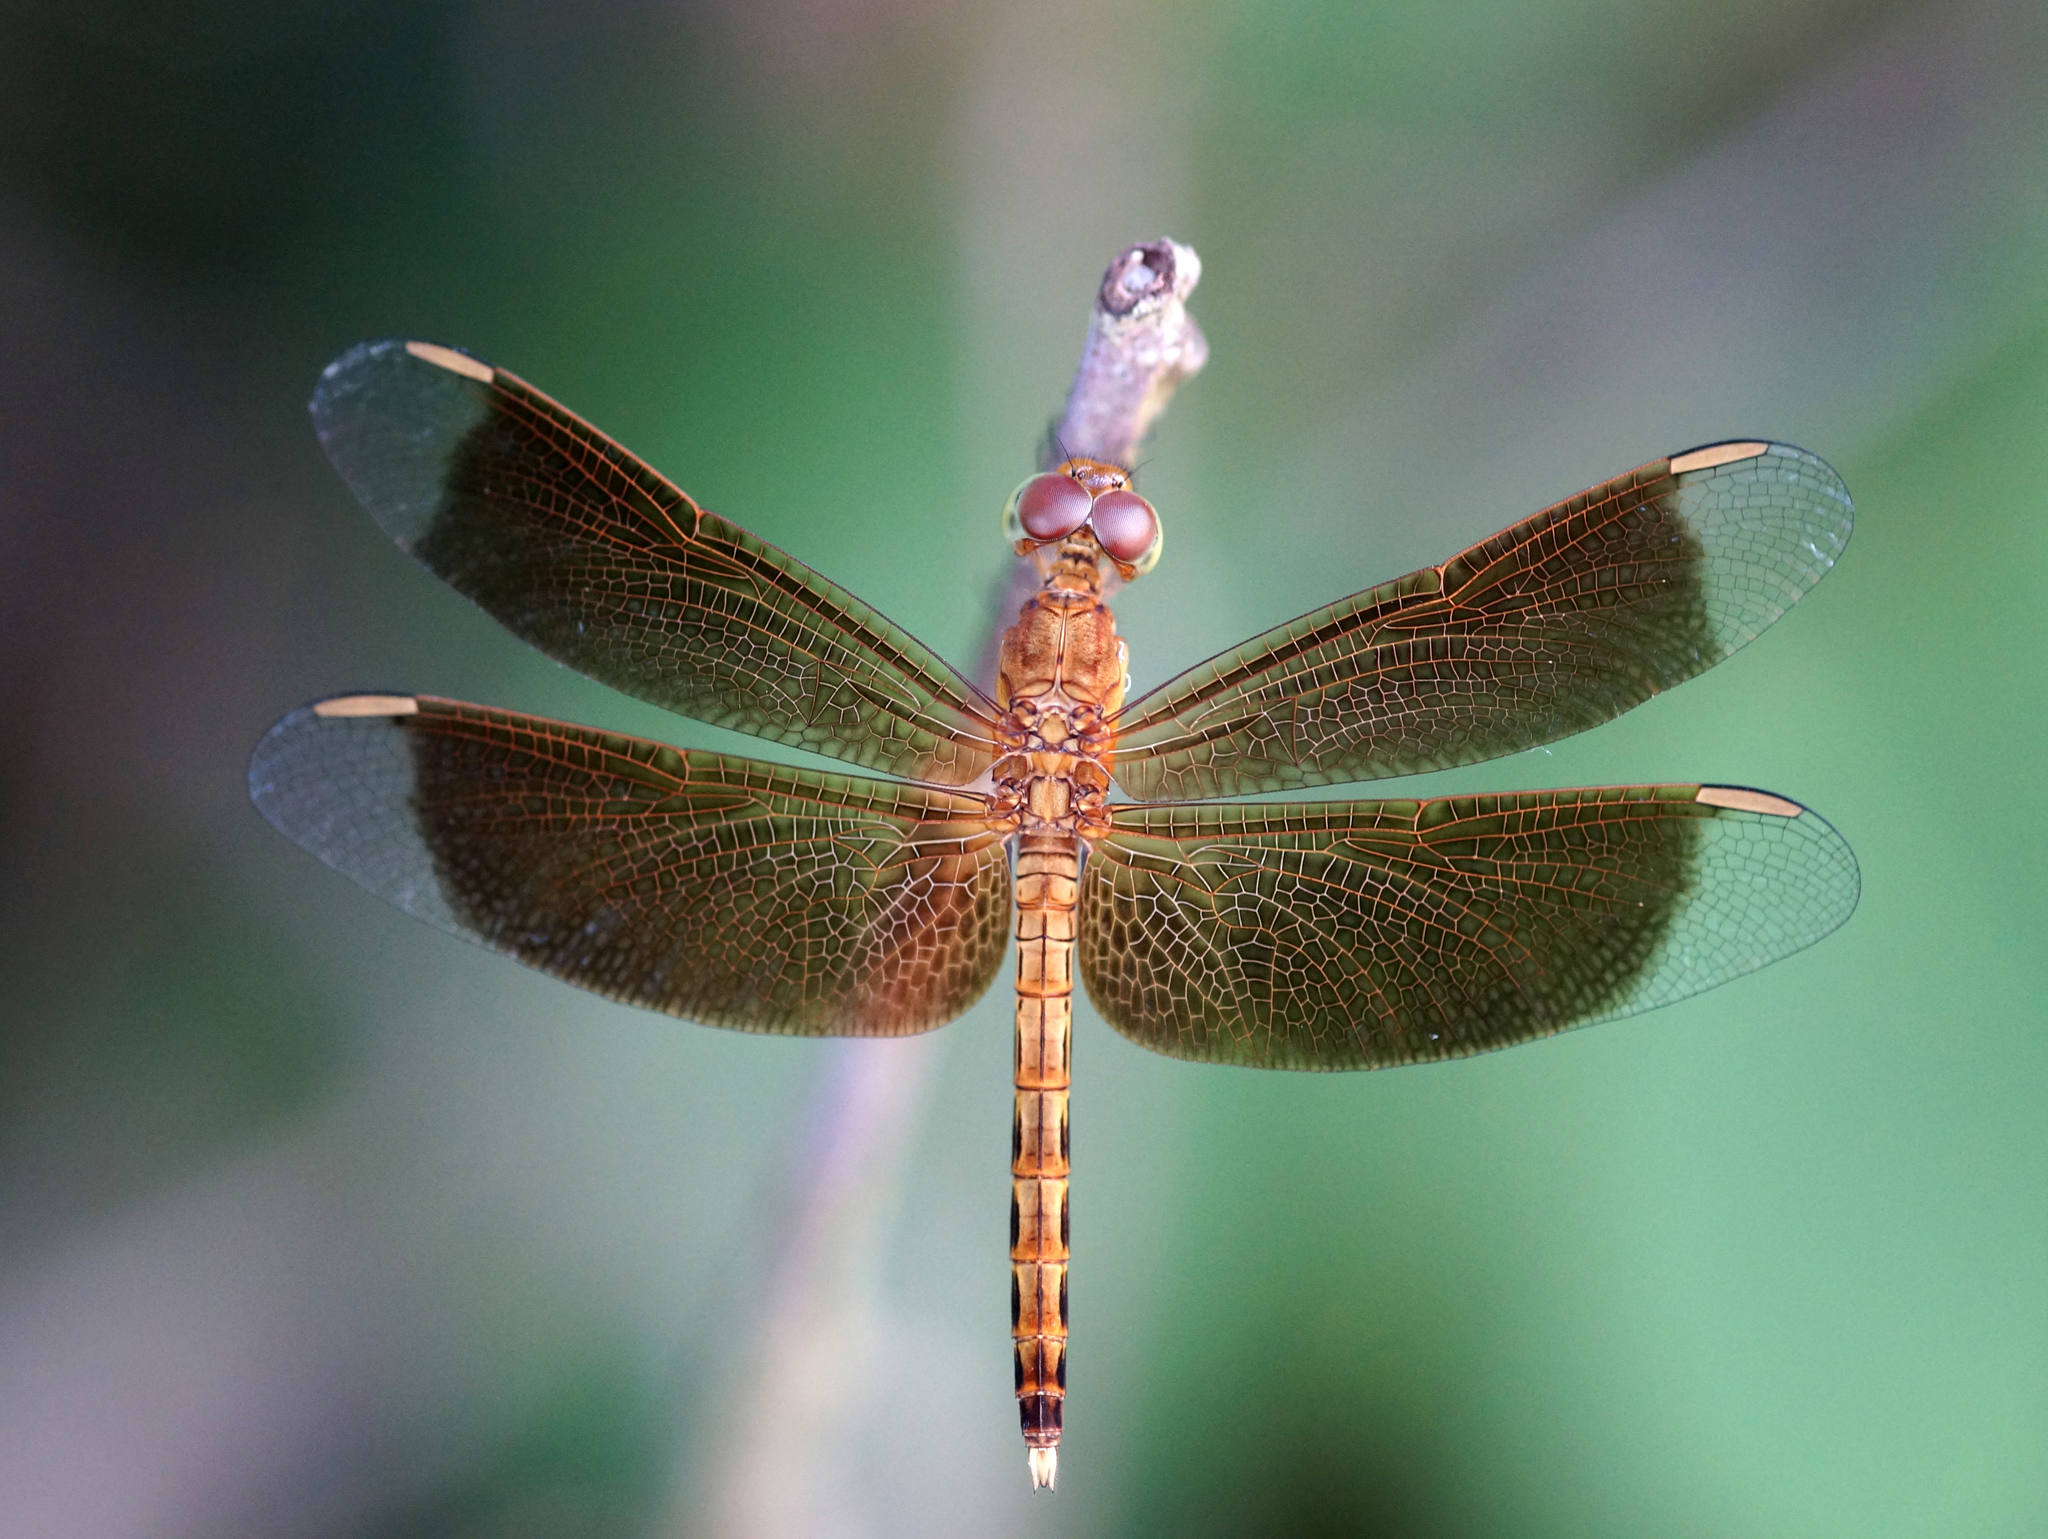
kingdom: Animalia
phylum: Arthropoda
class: Insecta
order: Odonata
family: Libellulidae
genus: Neurothemis
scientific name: Neurothemis fluctuans
